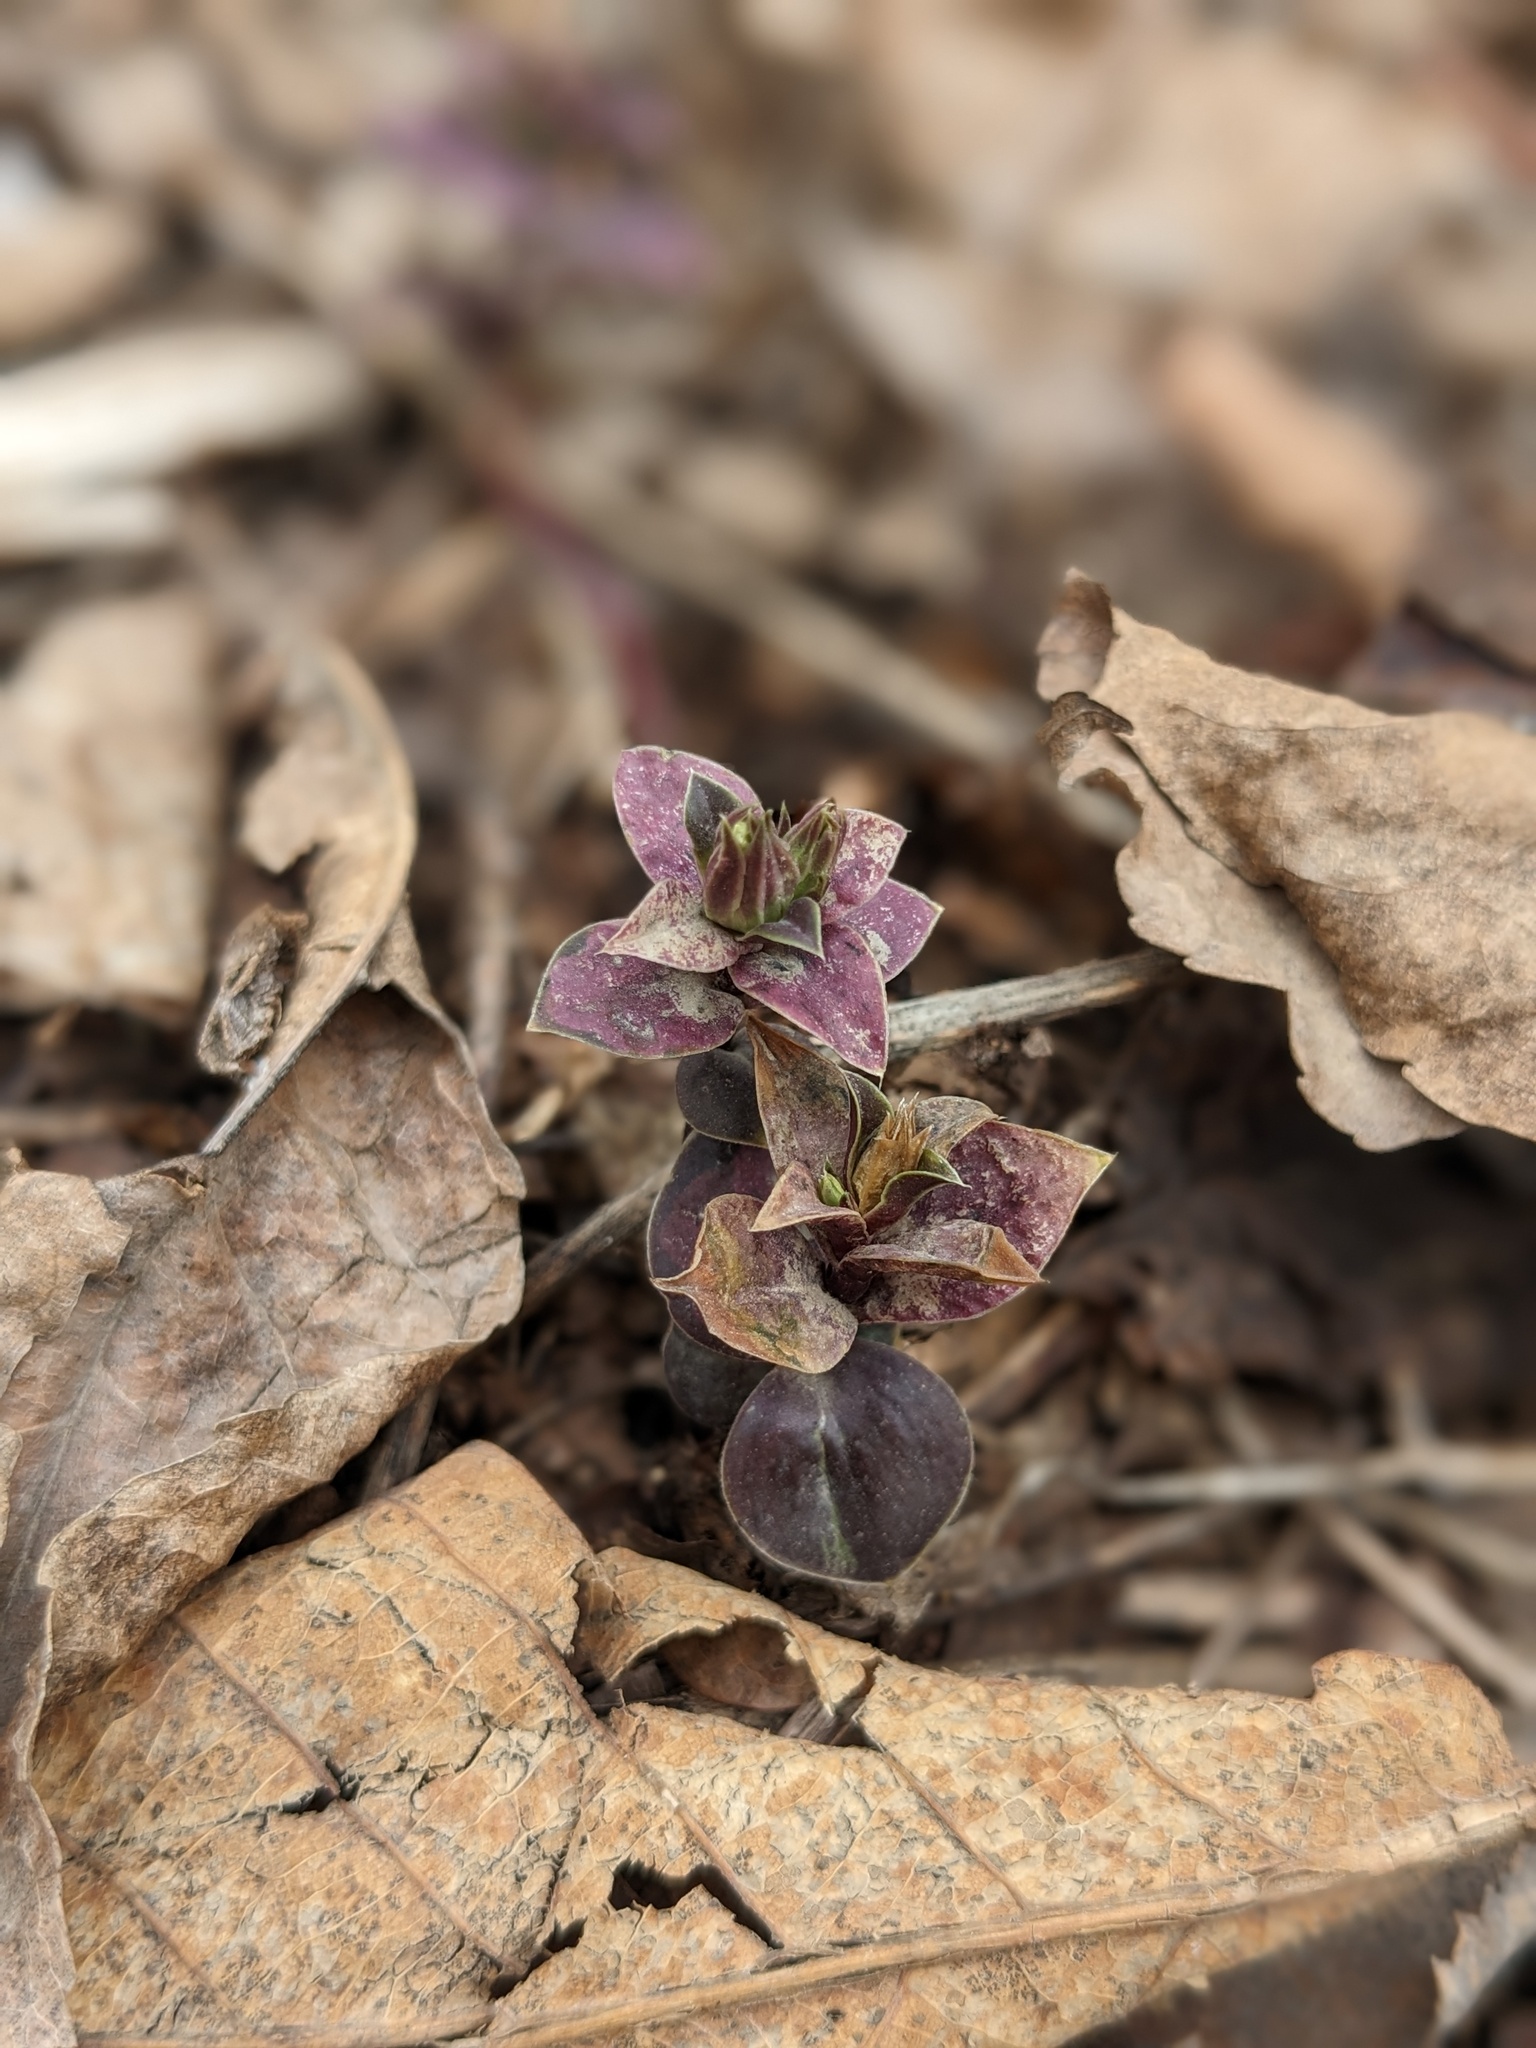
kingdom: Plantae
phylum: Tracheophyta
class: Magnoliopsida
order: Gentianales
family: Gentianaceae
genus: Gentiana
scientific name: Gentiana zollingeri
